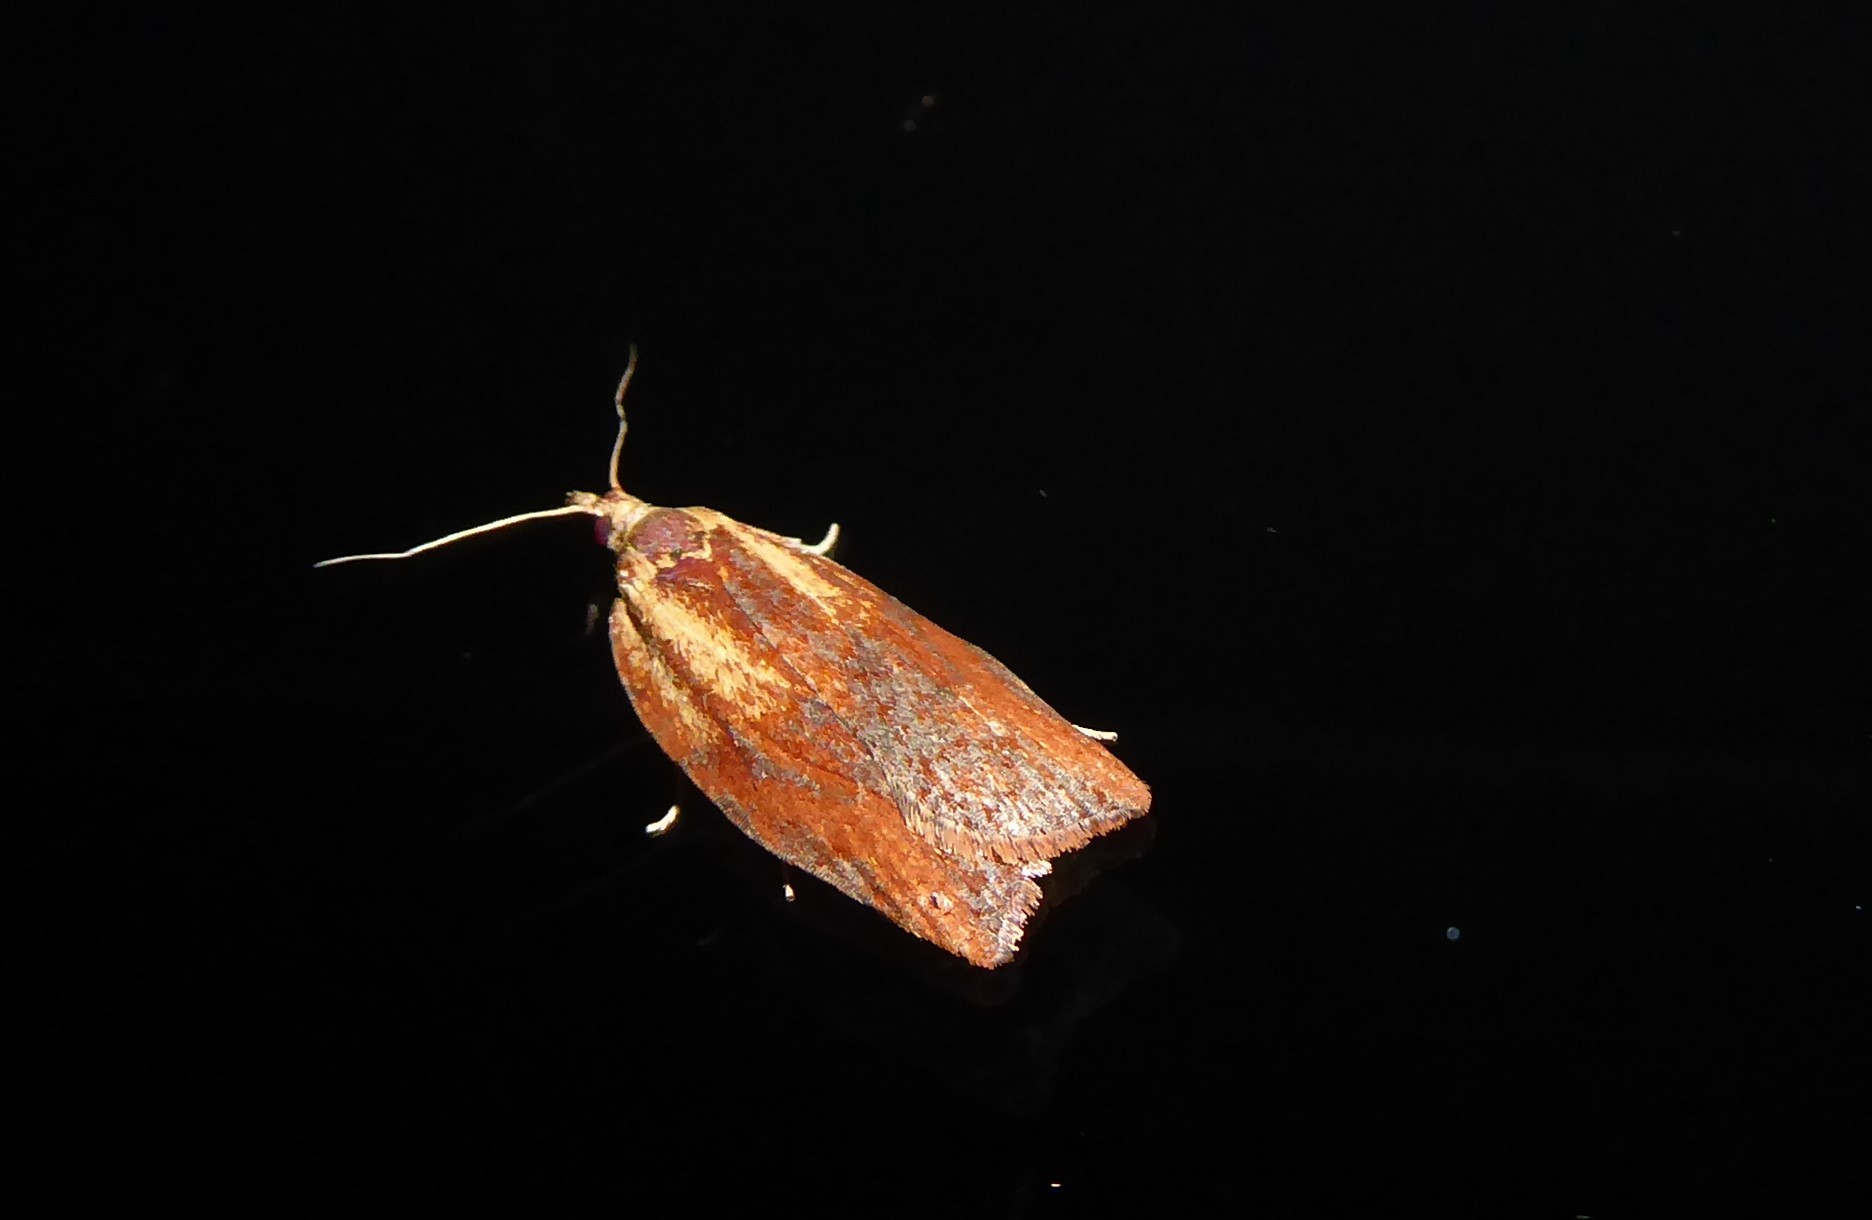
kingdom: Animalia
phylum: Arthropoda
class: Insecta
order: Lepidoptera
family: Tortricidae
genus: Epiphyas
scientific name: Epiphyas postvittana
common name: Light brown apple moth
